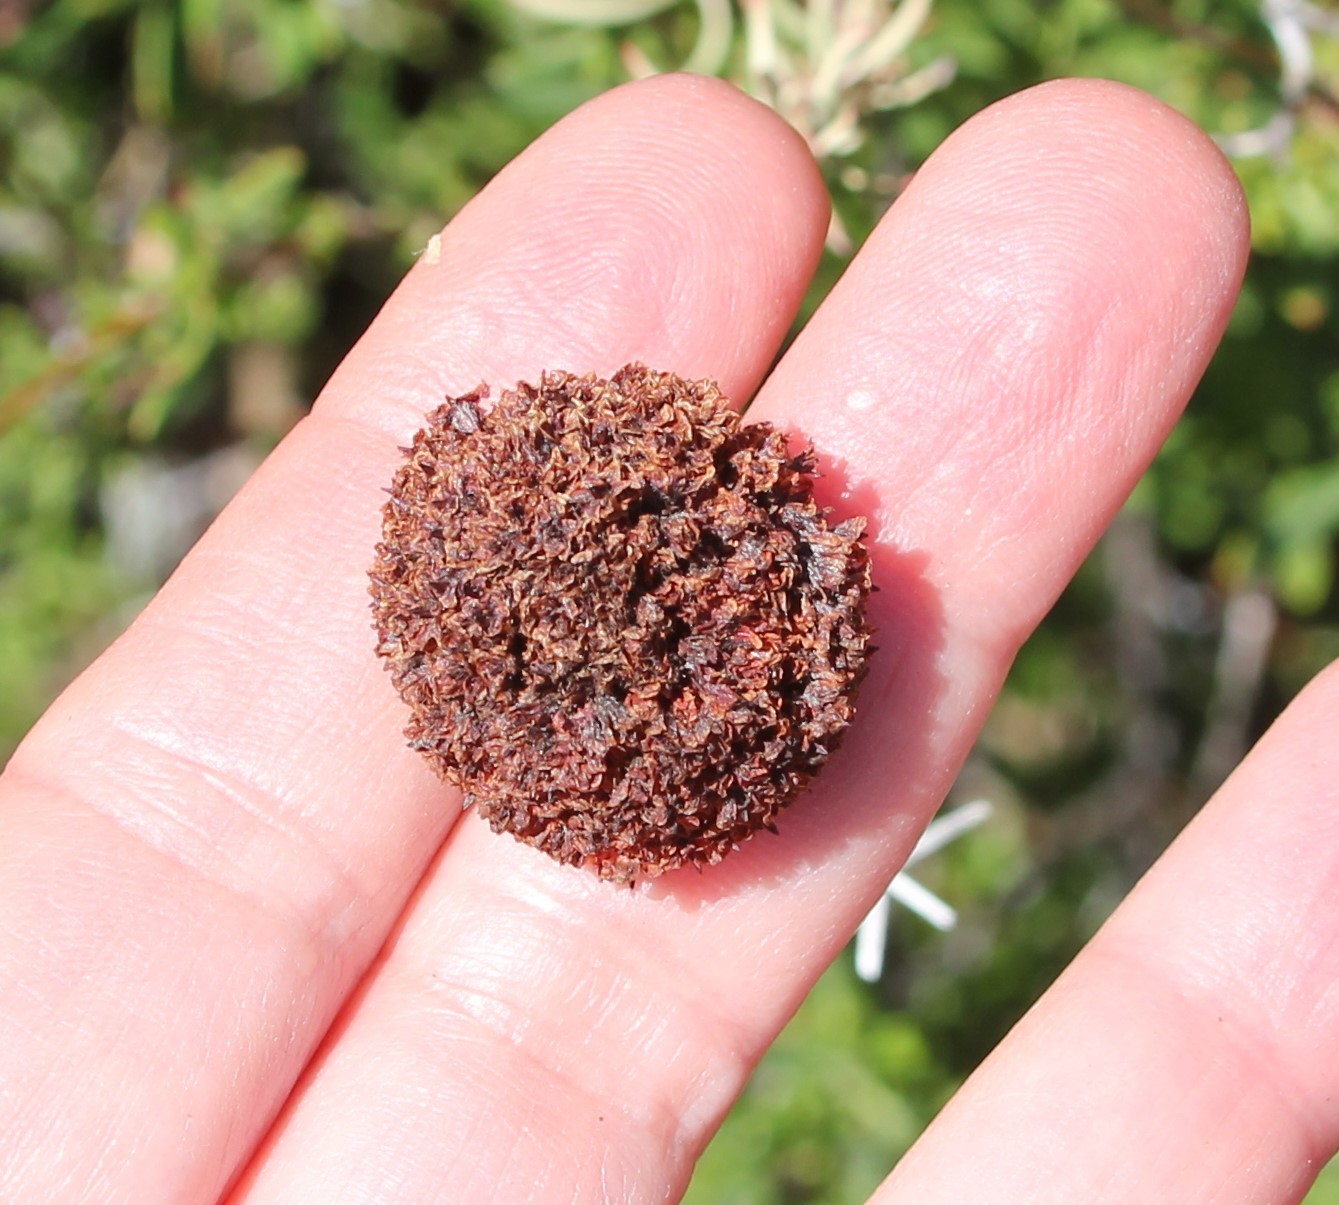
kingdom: Plantae
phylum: Tracheophyta
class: Magnoliopsida
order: Caryophyllales
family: Polygonaceae
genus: Eriogonum
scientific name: Eriogonum fasciculatum
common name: California wild buckwheat
